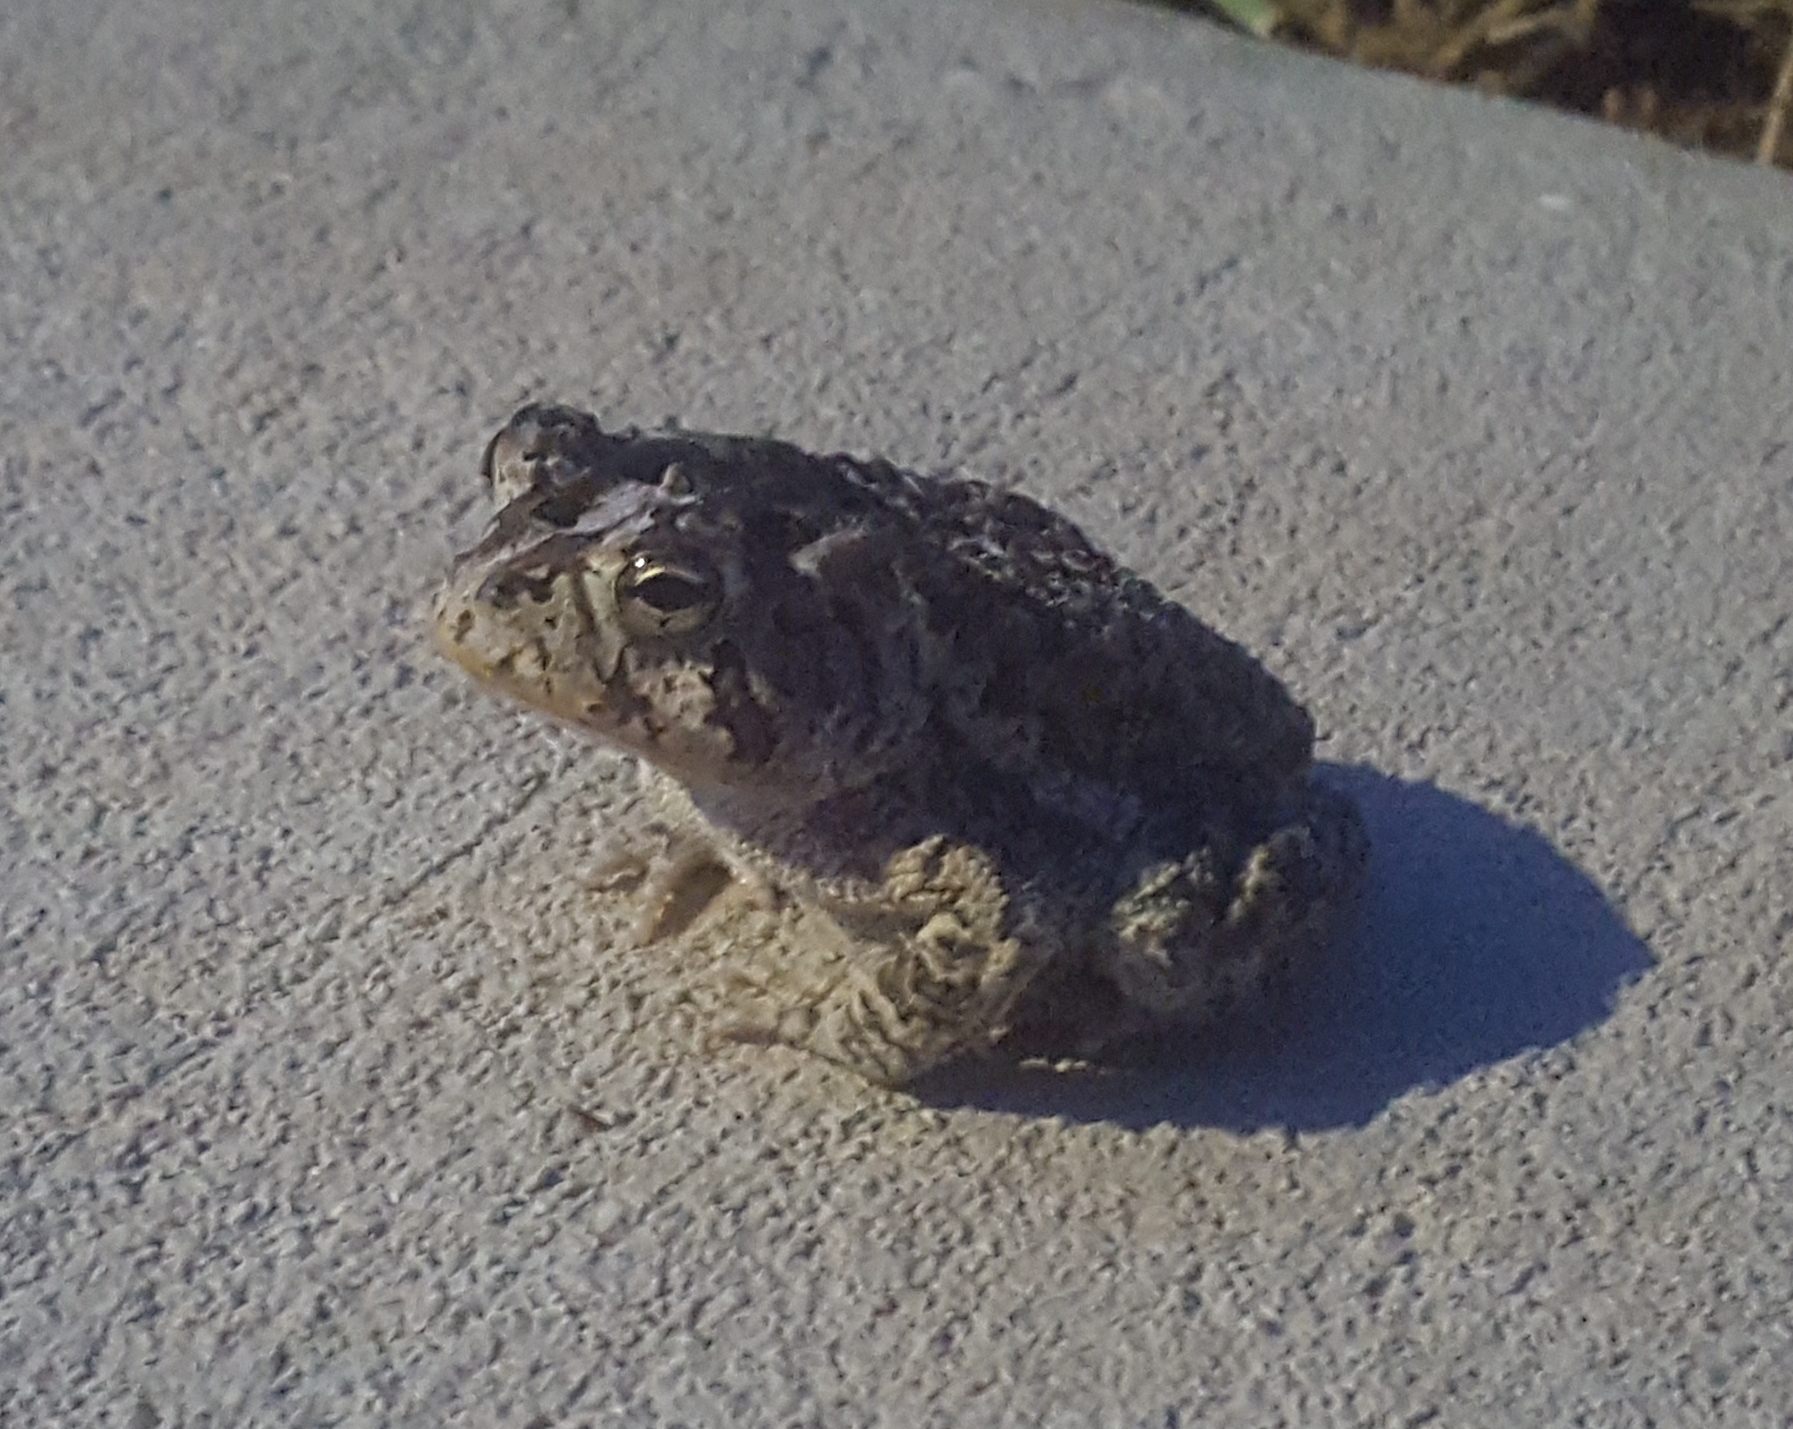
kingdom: Animalia
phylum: Chordata
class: Amphibia
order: Anura
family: Bufonidae
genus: Anaxyrus
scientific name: Anaxyrus terrestris
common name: Southern toad
